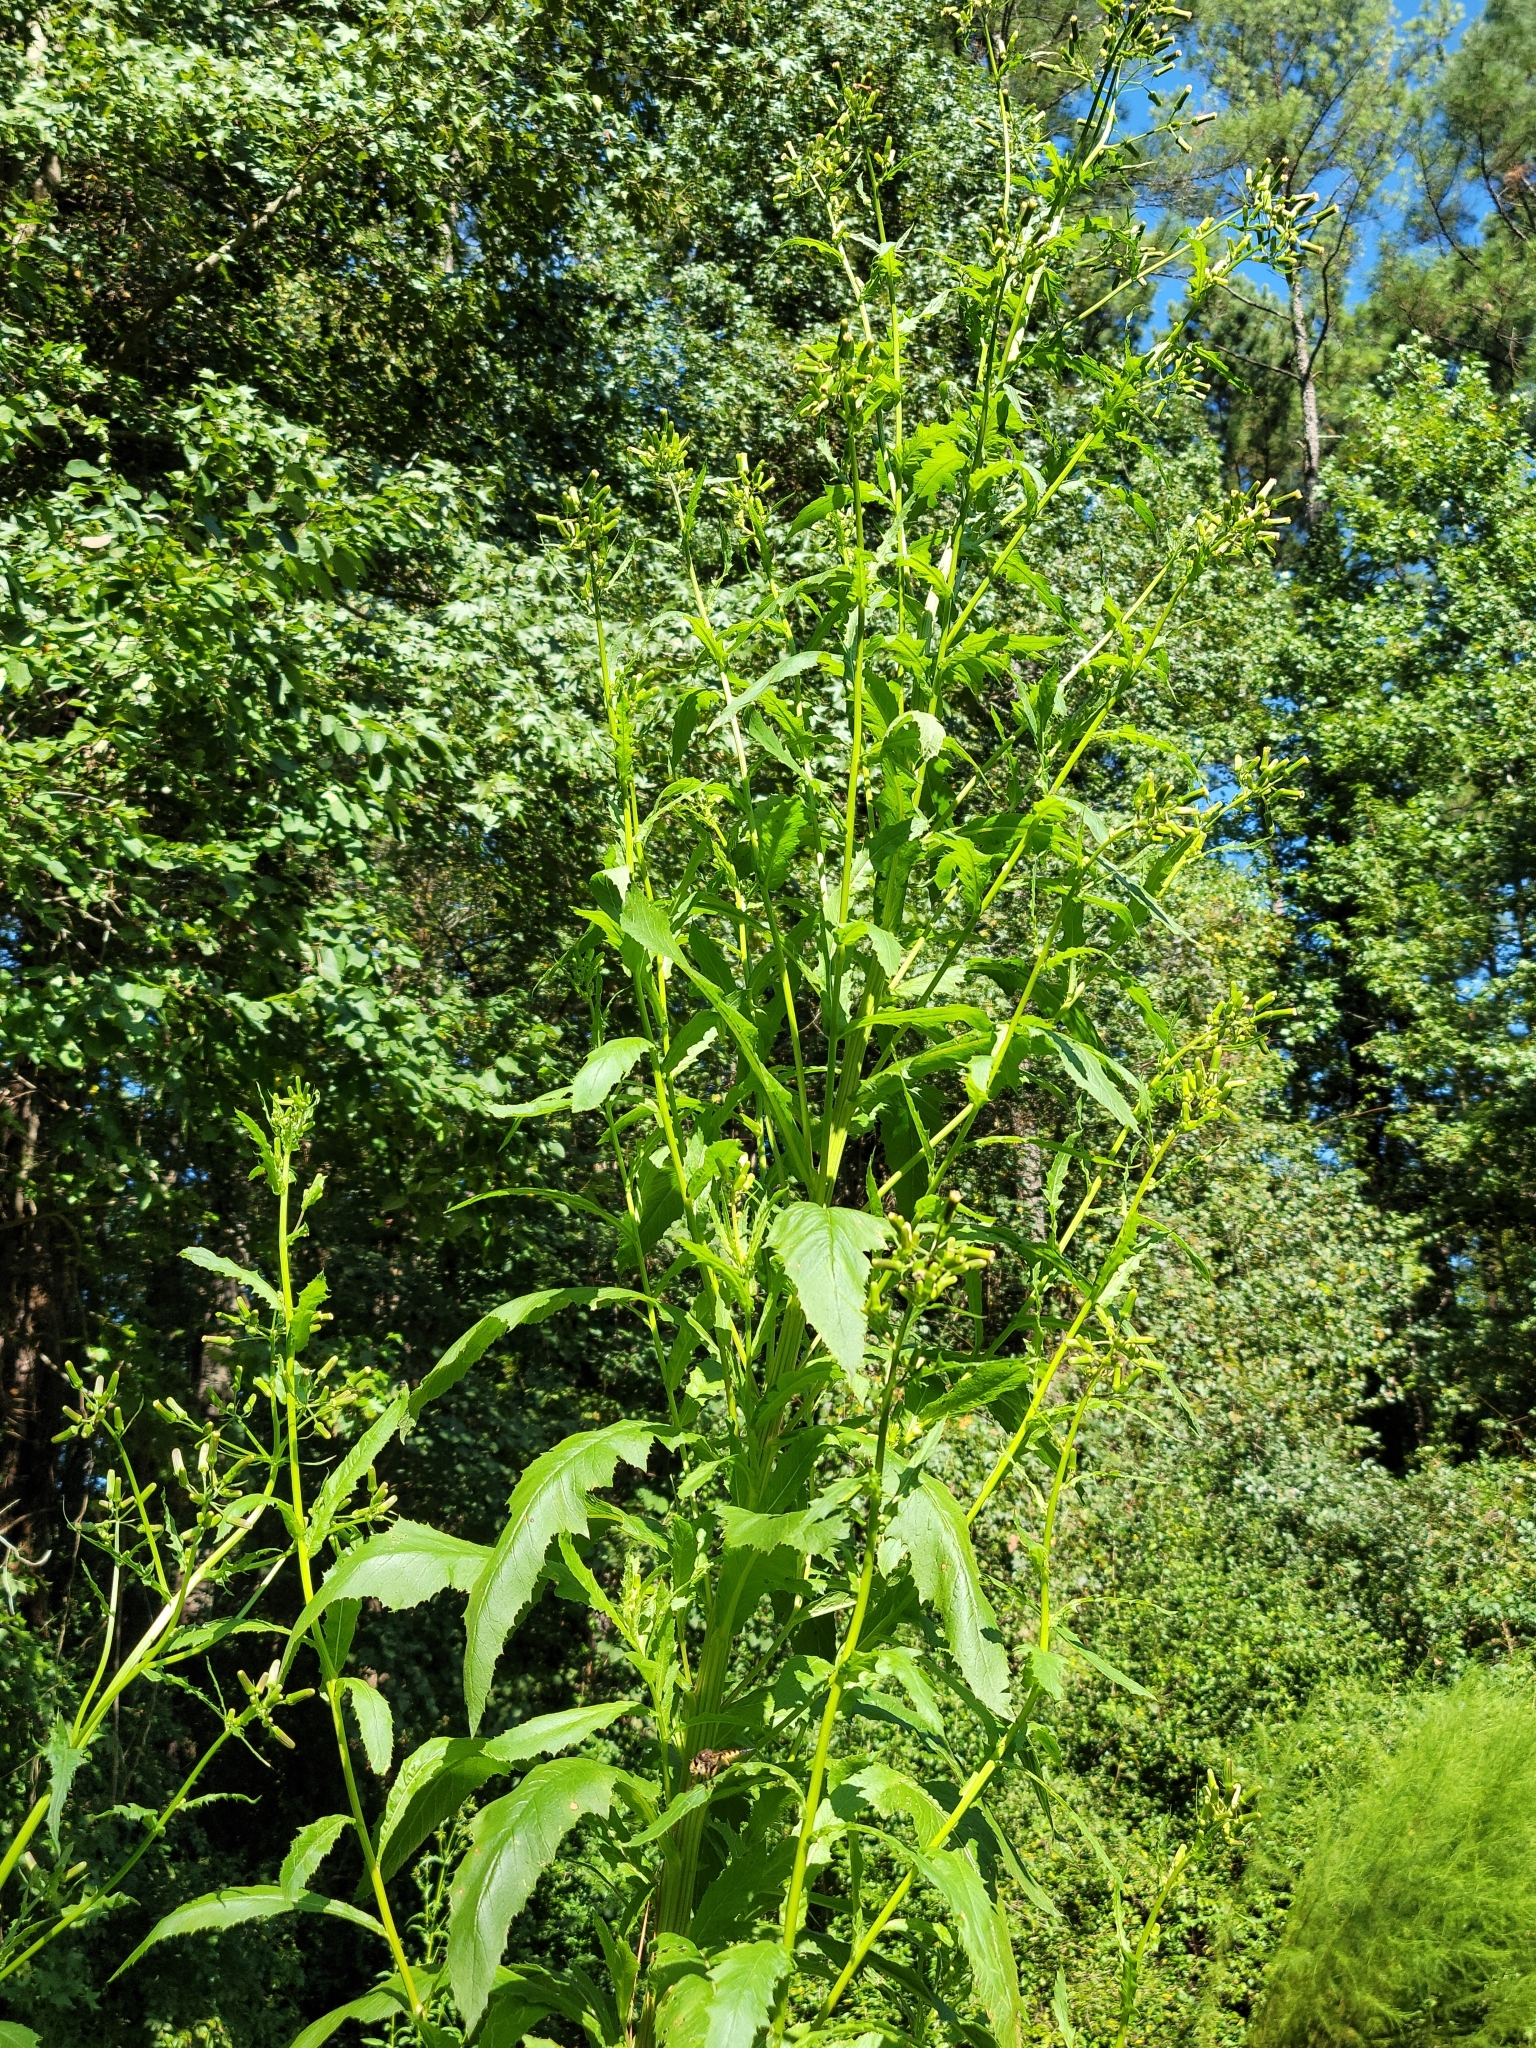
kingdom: Plantae
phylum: Tracheophyta
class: Magnoliopsida
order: Asterales
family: Asteraceae
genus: Erechtites
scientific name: Erechtites hieraciifolius
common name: American burnweed
